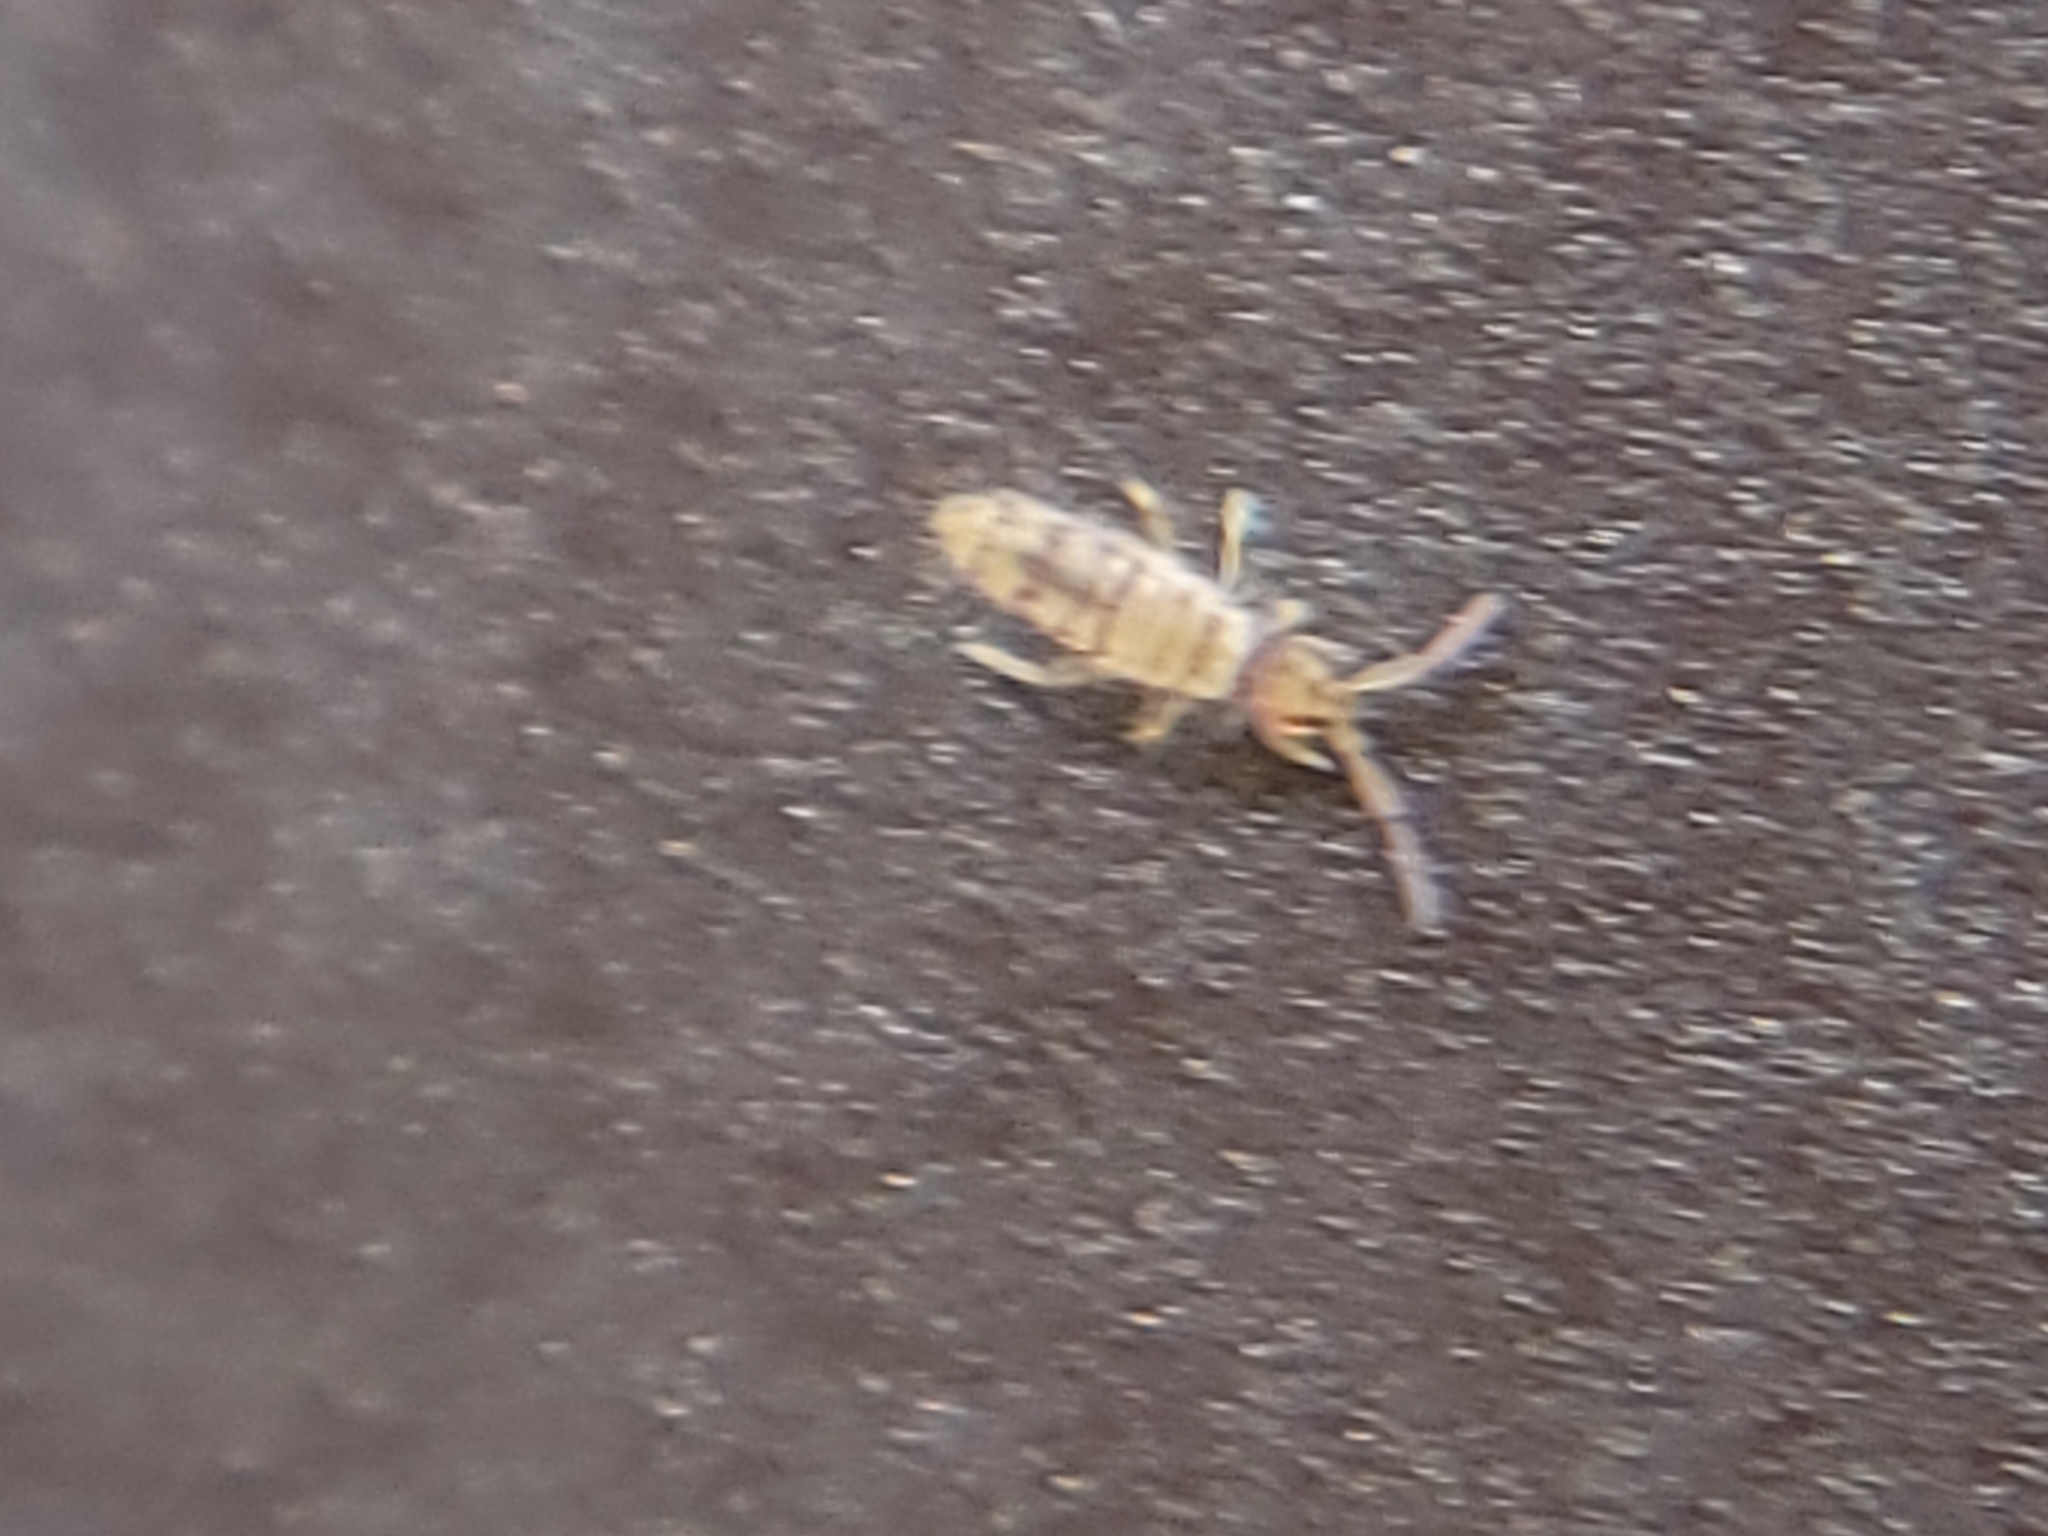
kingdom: Animalia
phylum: Arthropoda
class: Collembola
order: Entomobryomorpha
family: Entomobryidae
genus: Entomobrya
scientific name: Entomobrya atrocincta
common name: Springtail
